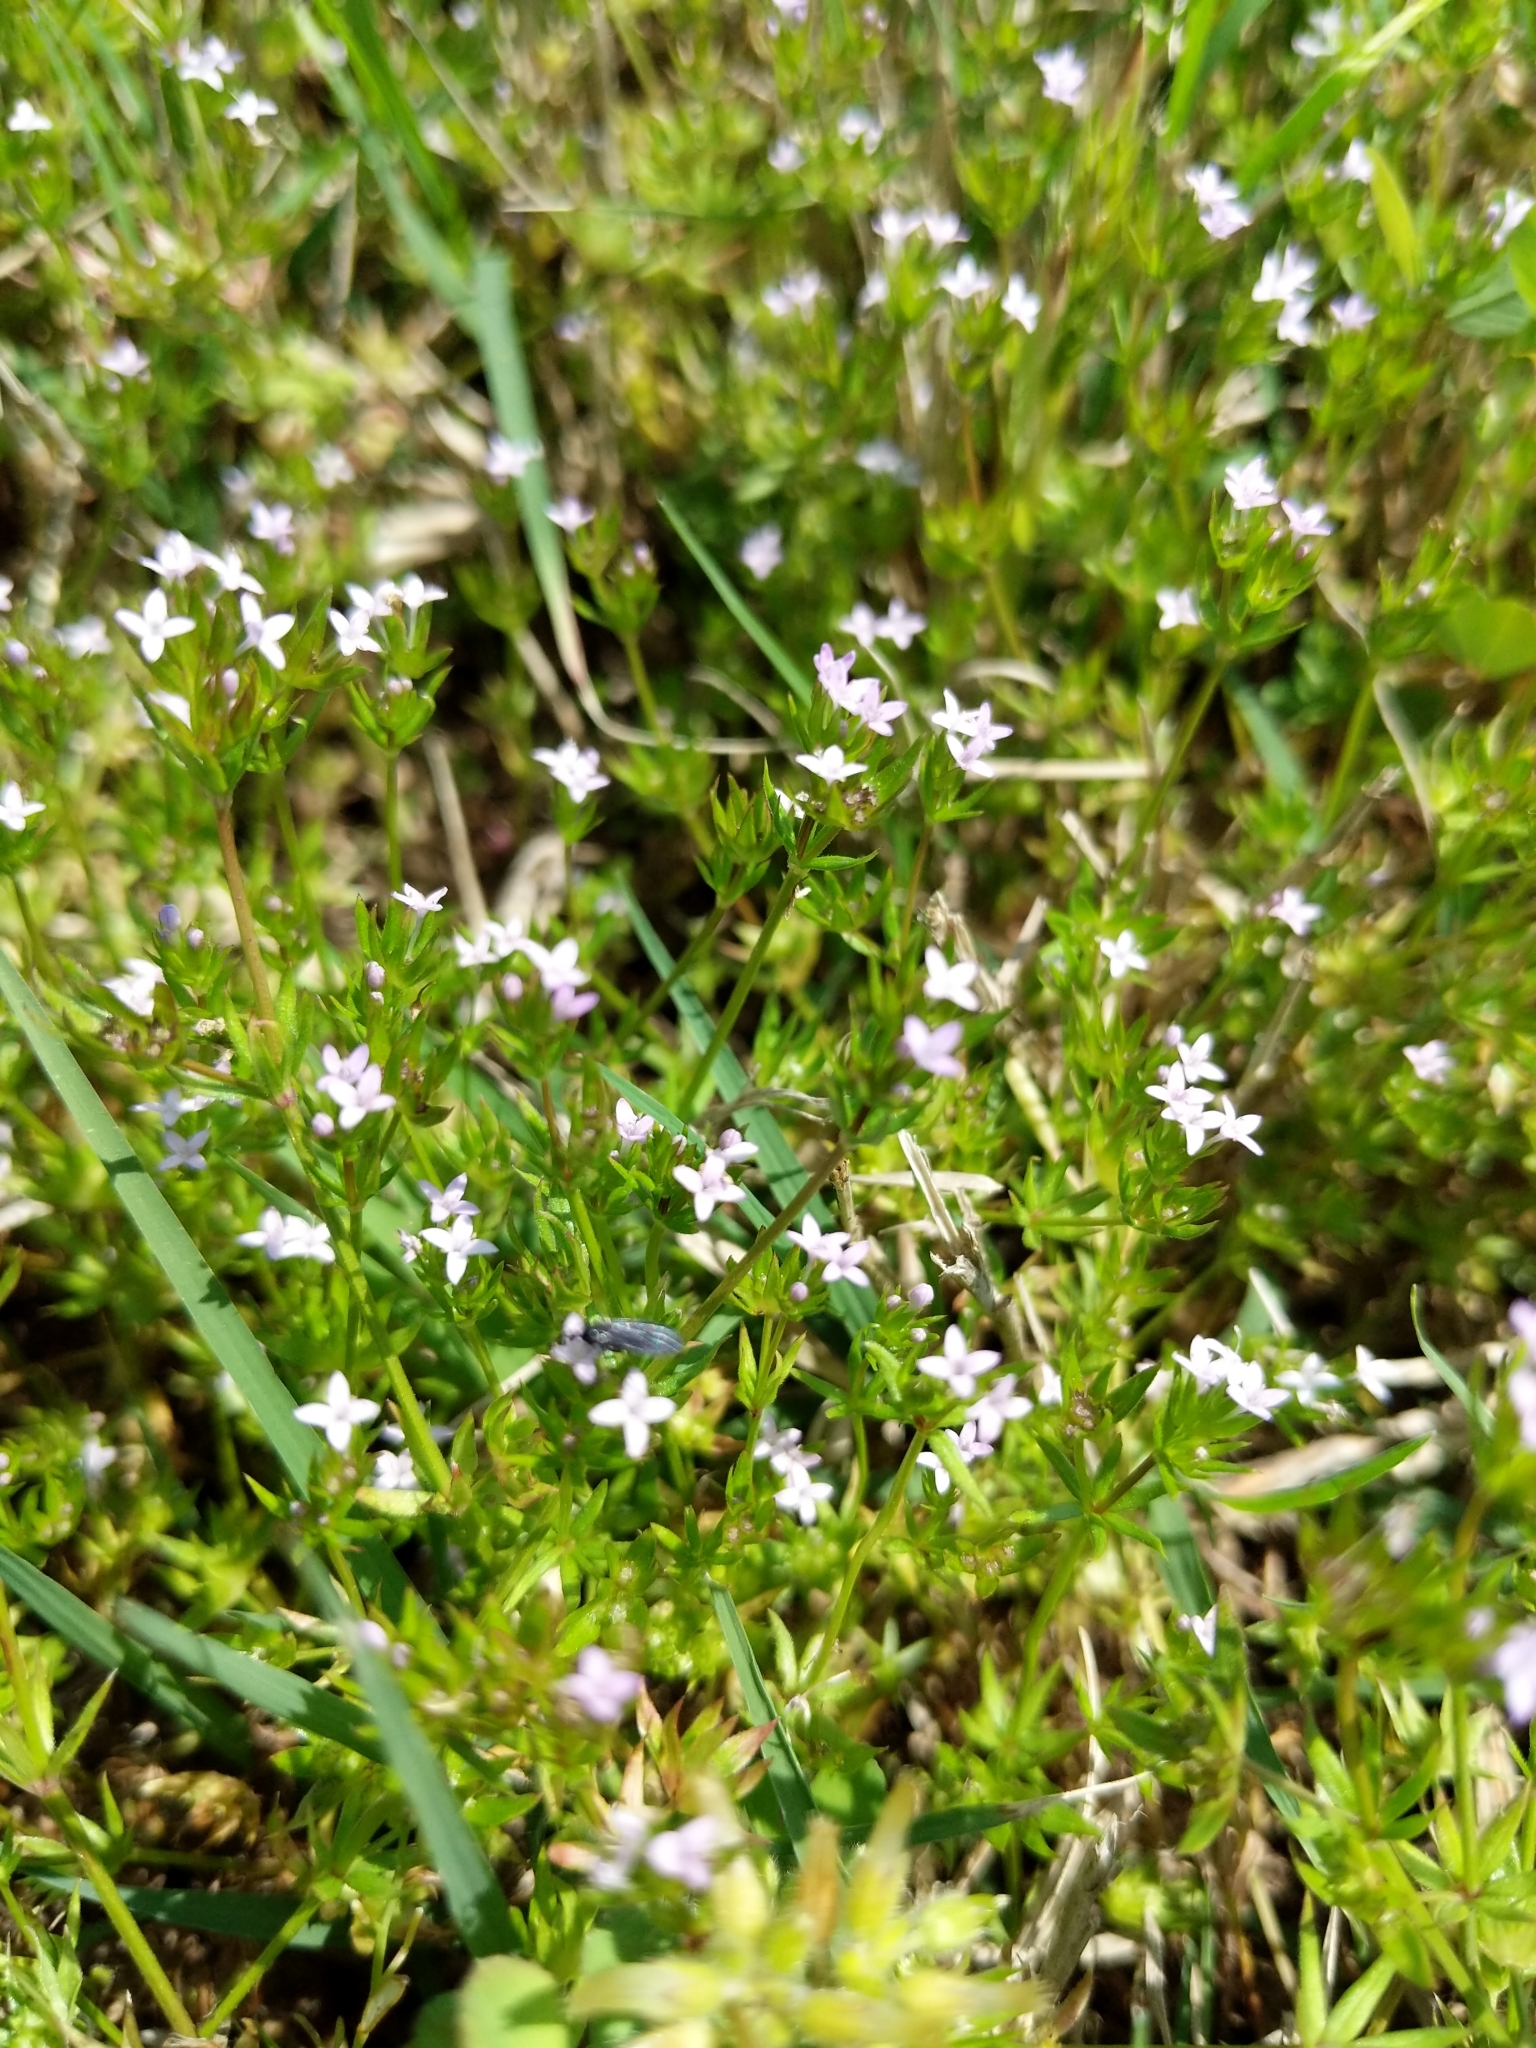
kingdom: Plantae
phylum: Tracheophyta
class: Magnoliopsida
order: Gentianales
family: Rubiaceae
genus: Sherardia
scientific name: Sherardia arvensis
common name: Field madder
